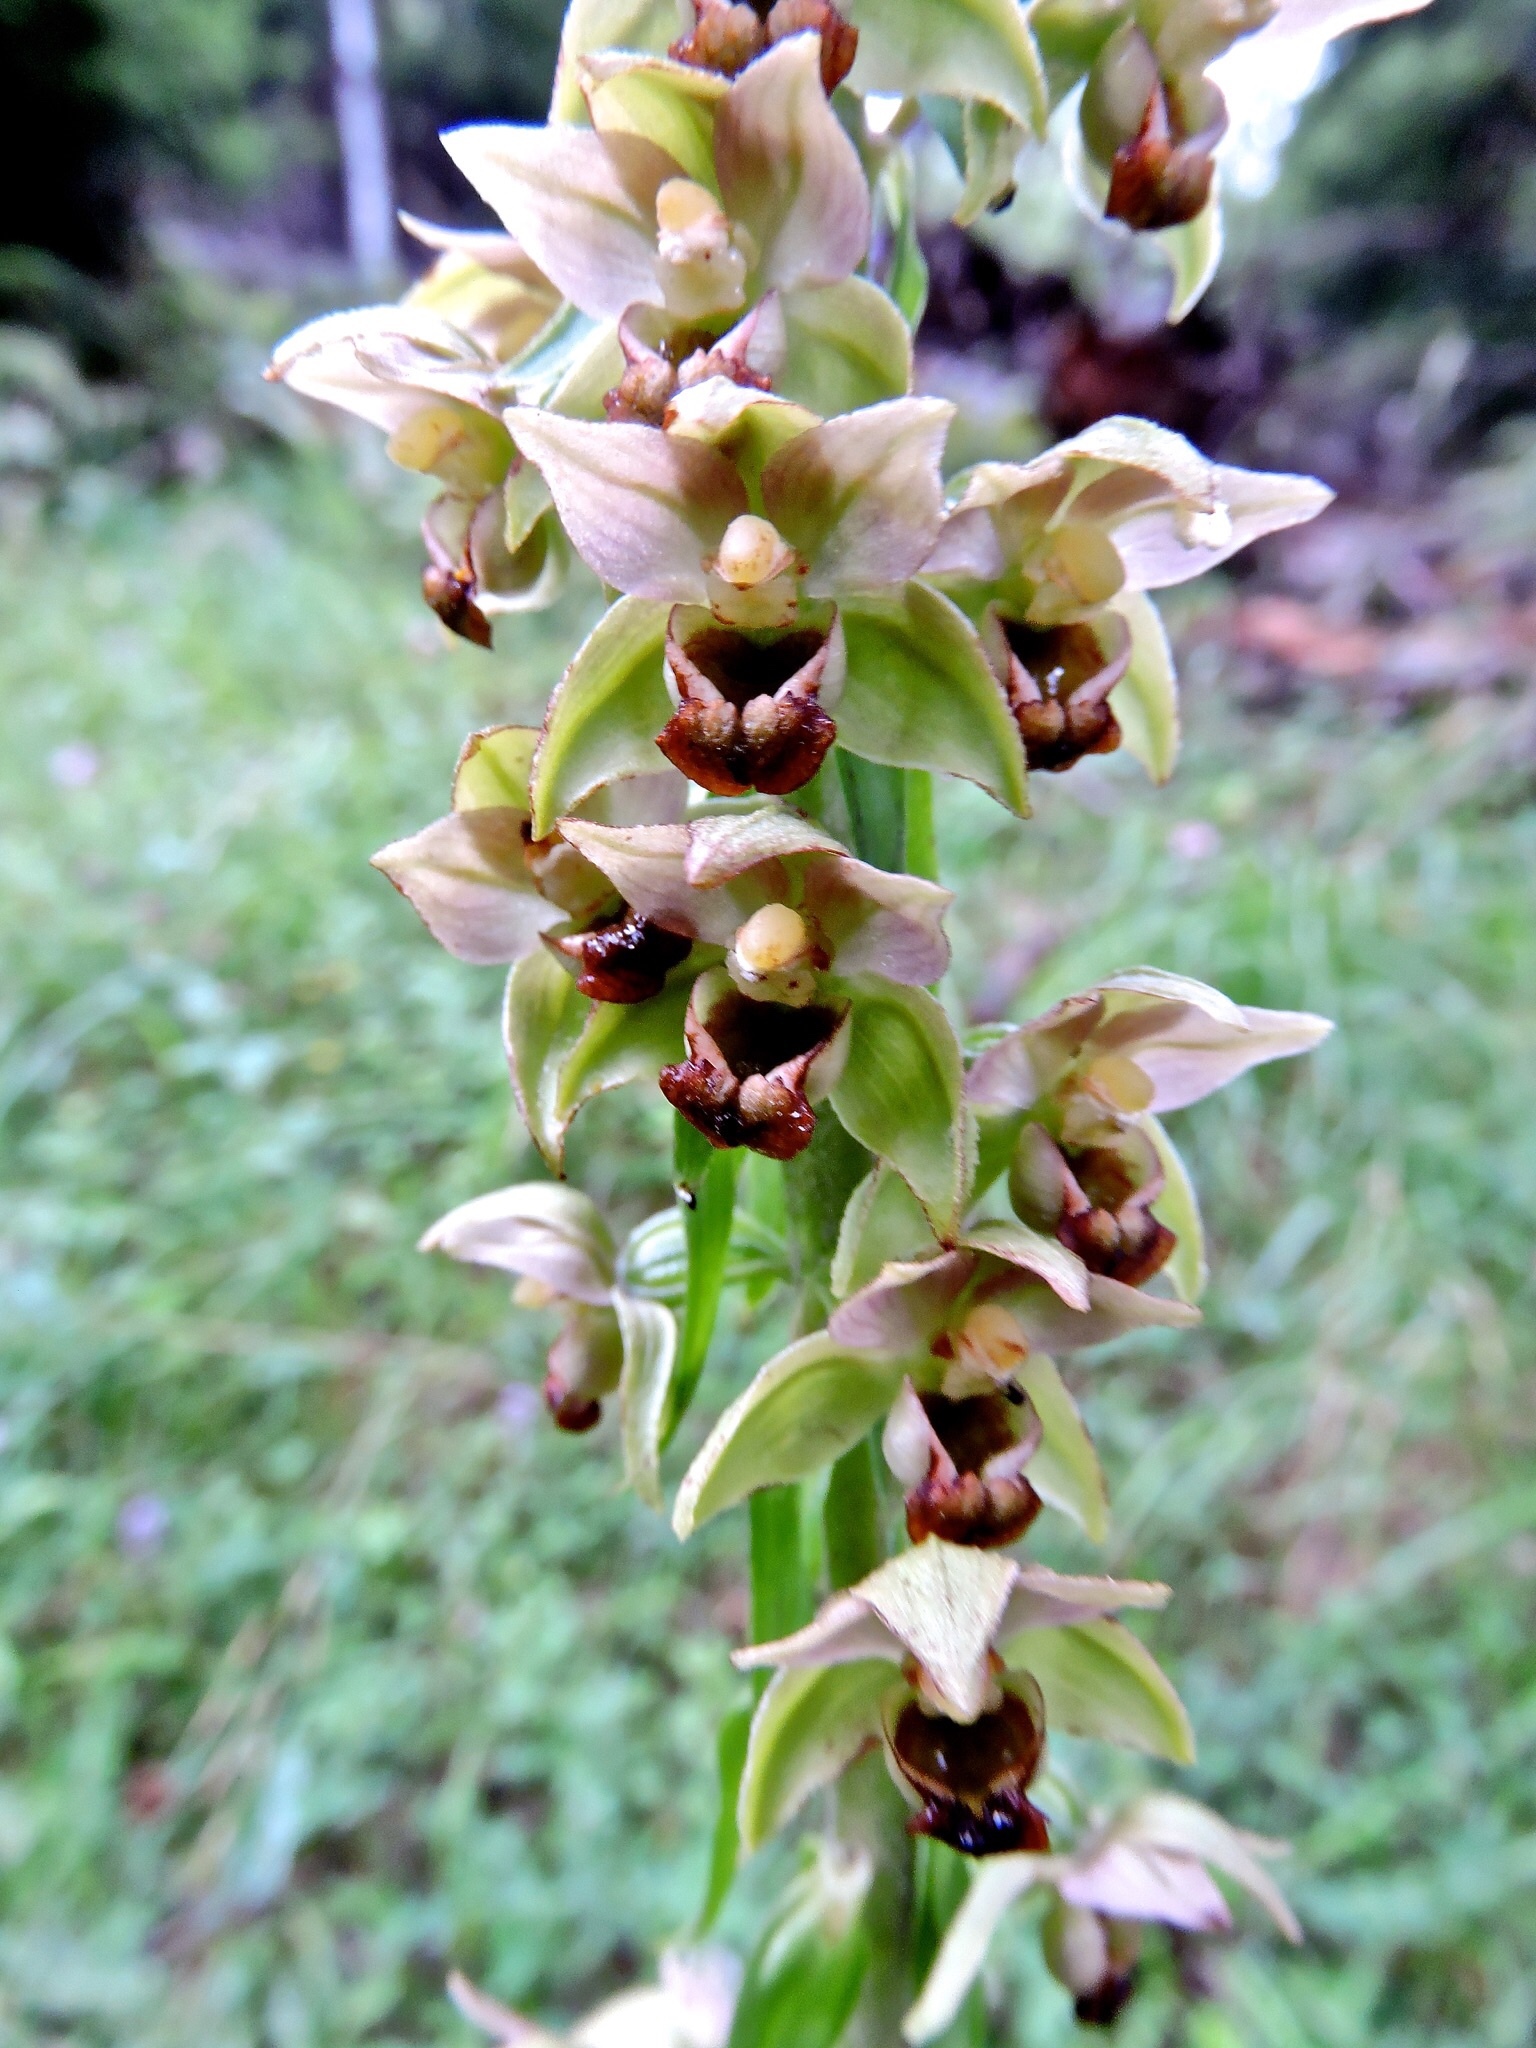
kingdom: Plantae
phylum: Tracheophyta
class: Liliopsida
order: Asparagales
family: Orchidaceae
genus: Epipactis
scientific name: Epipactis helleborine
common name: Broad-leaved helleborine
